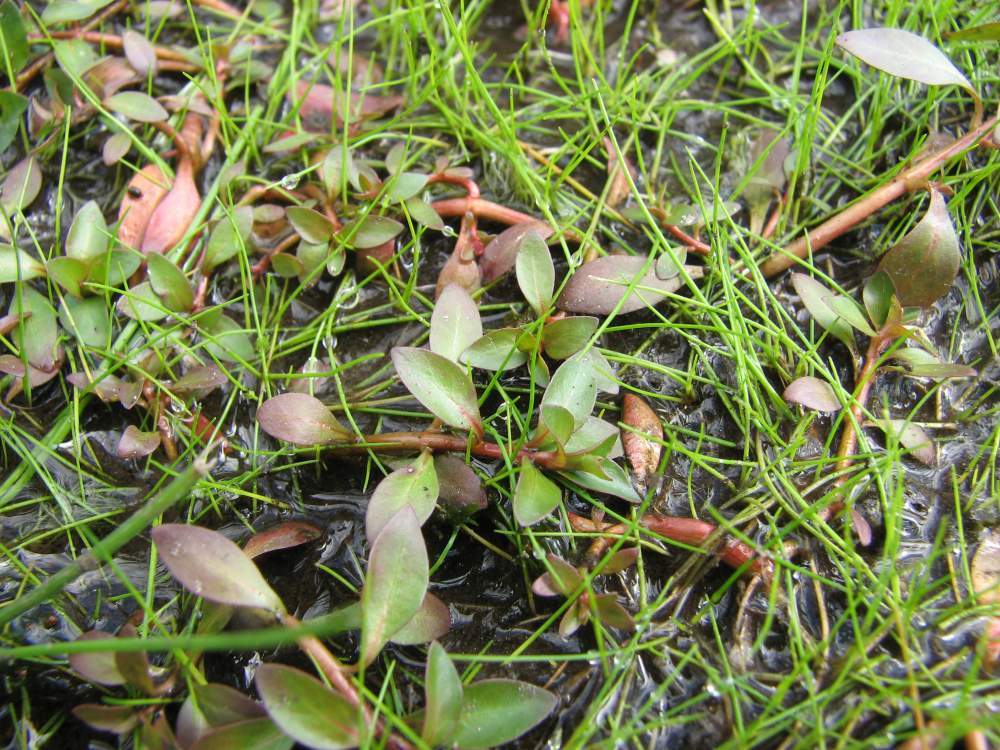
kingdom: Plantae
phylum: Tracheophyta
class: Magnoliopsida
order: Myrtales
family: Onagraceae
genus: Ludwigia
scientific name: Ludwigia palustris
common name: Hampshire-purslane
